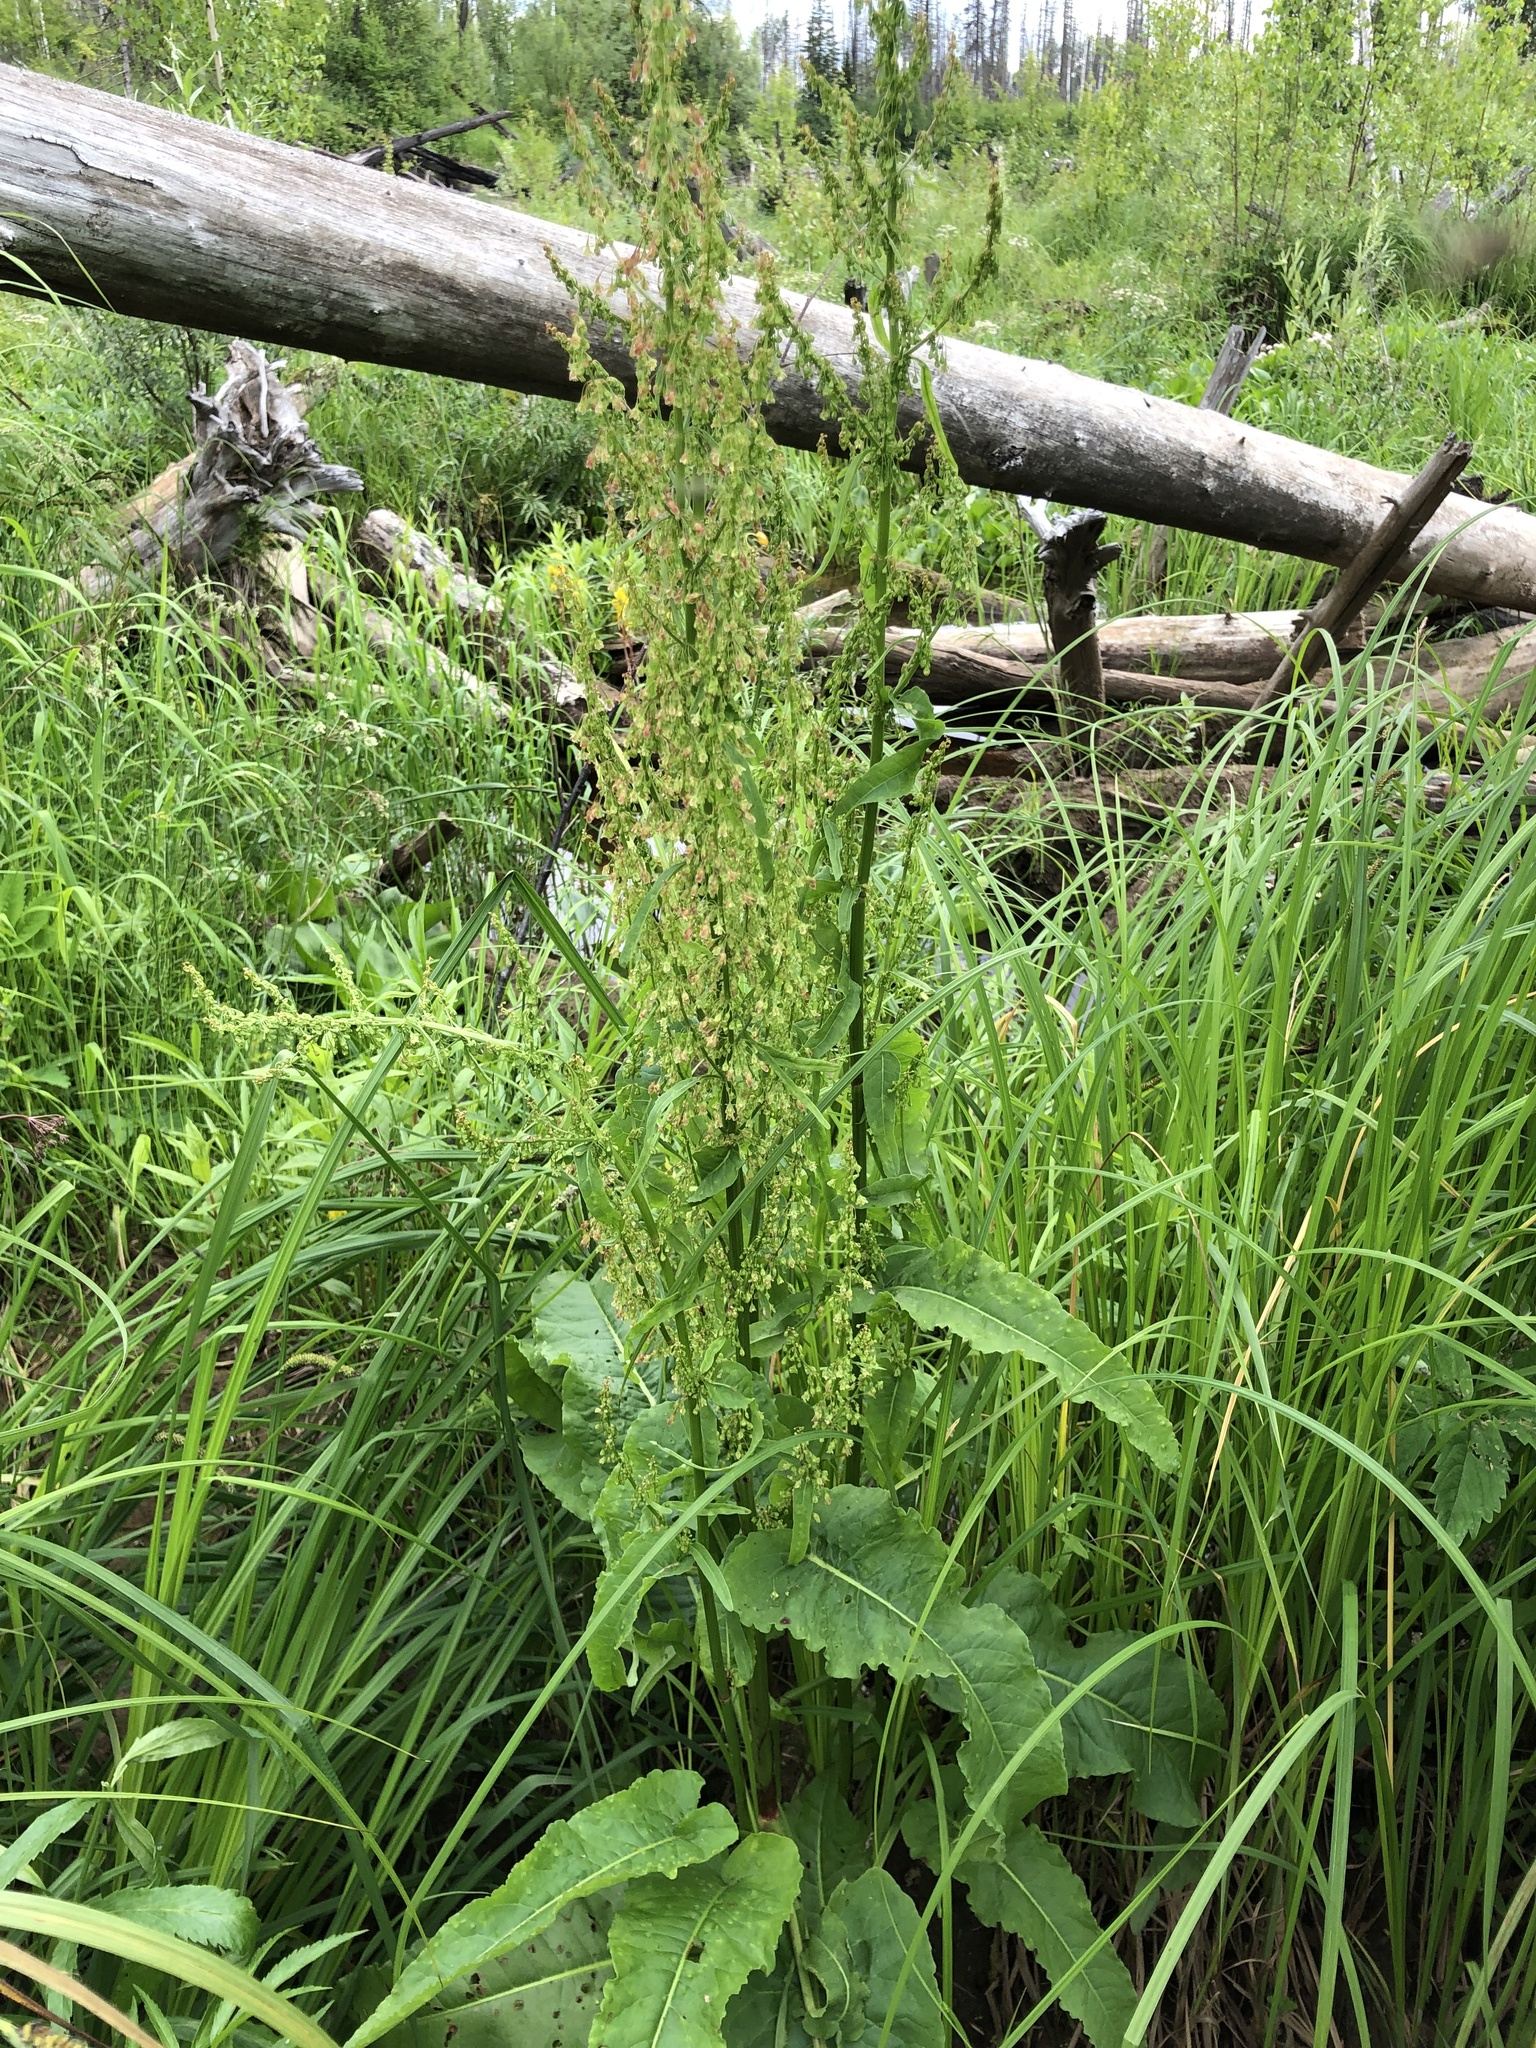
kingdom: Plantae
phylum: Tracheophyta
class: Magnoliopsida
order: Caryophyllales
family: Polygonaceae
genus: Rumex
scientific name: Rumex aquaticus
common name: Scottish dock
